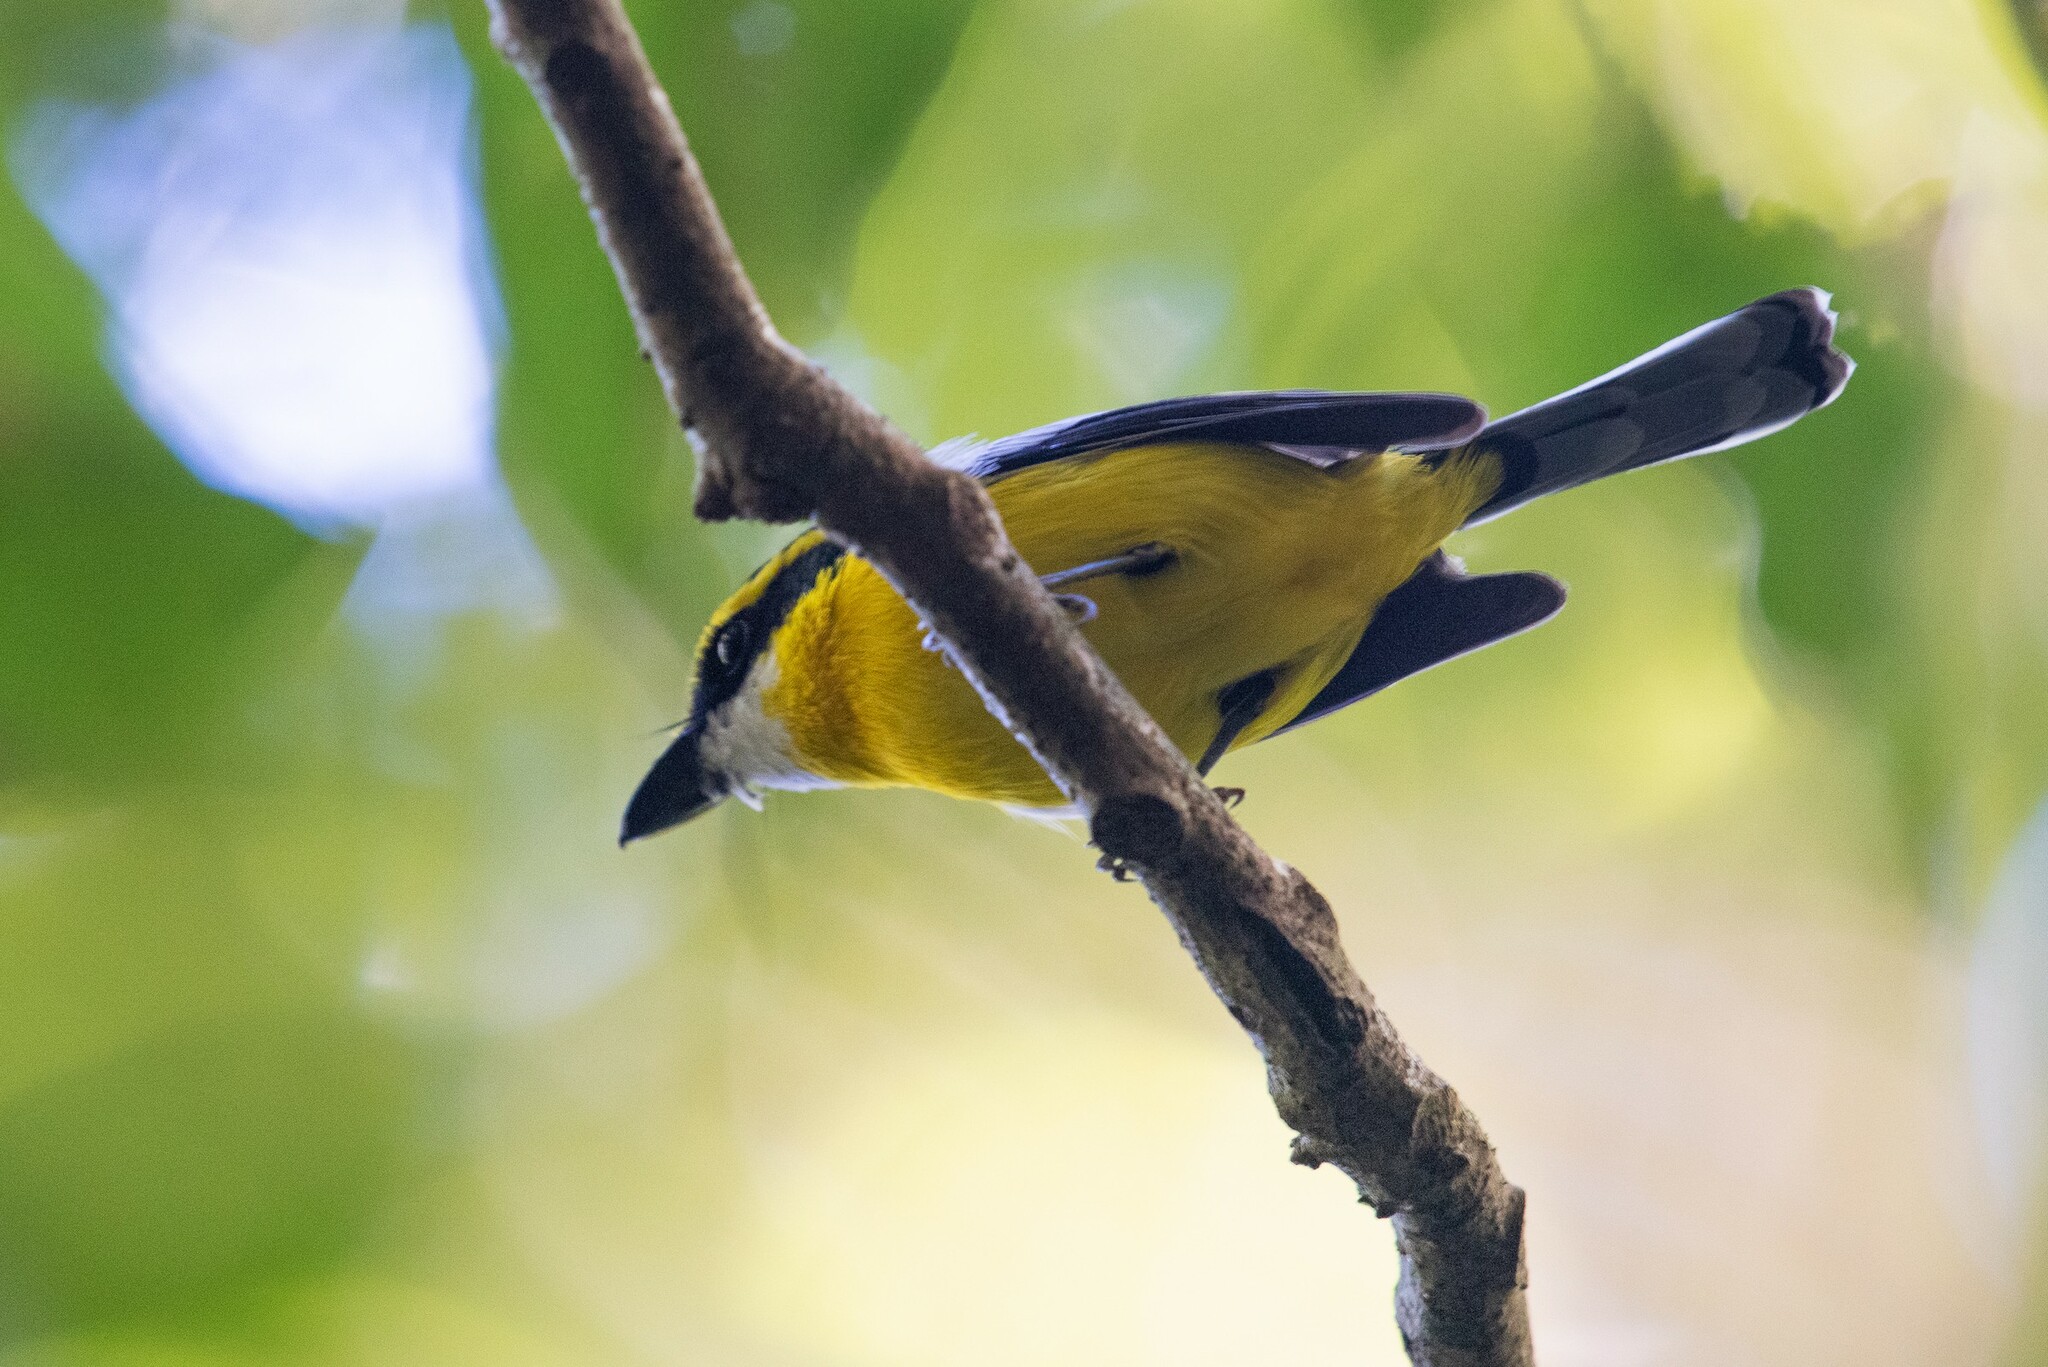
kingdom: Animalia
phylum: Chordata
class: Aves
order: Passeriformes
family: Machaerirhynchidae
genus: Machaerirhynchus
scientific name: Machaerirhynchus flaviventer
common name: Yellow-breasted boatbill
